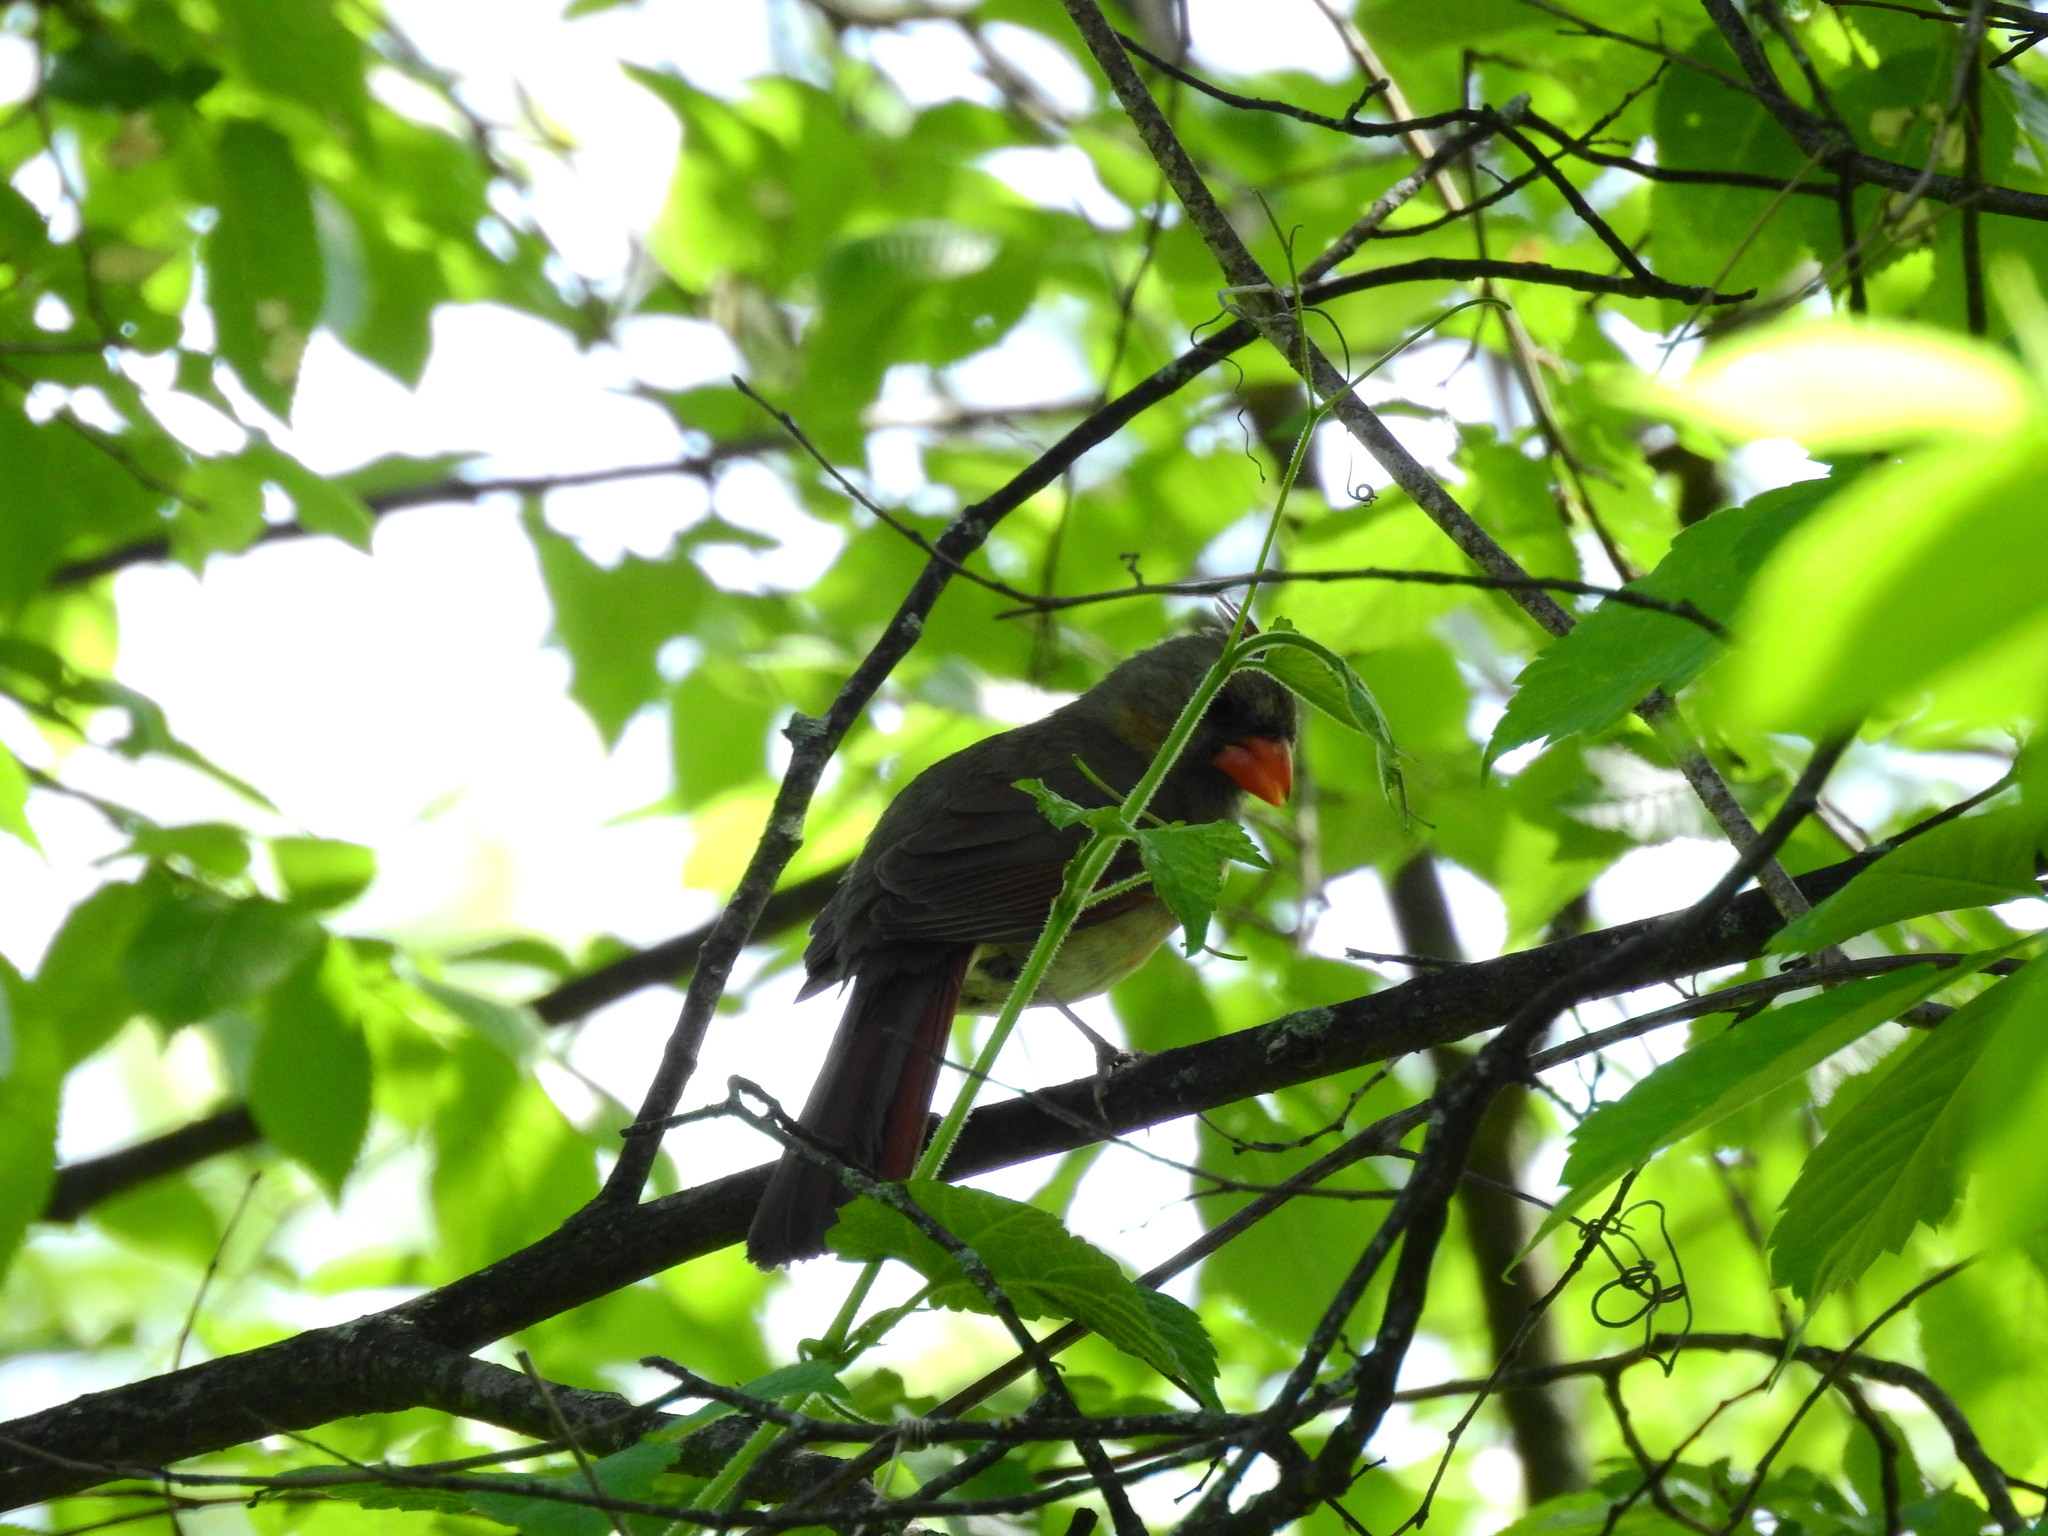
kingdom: Animalia
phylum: Chordata
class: Aves
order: Passeriformes
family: Cardinalidae
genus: Cardinalis
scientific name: Cardinalis cardinalis
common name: Northern cardinal
